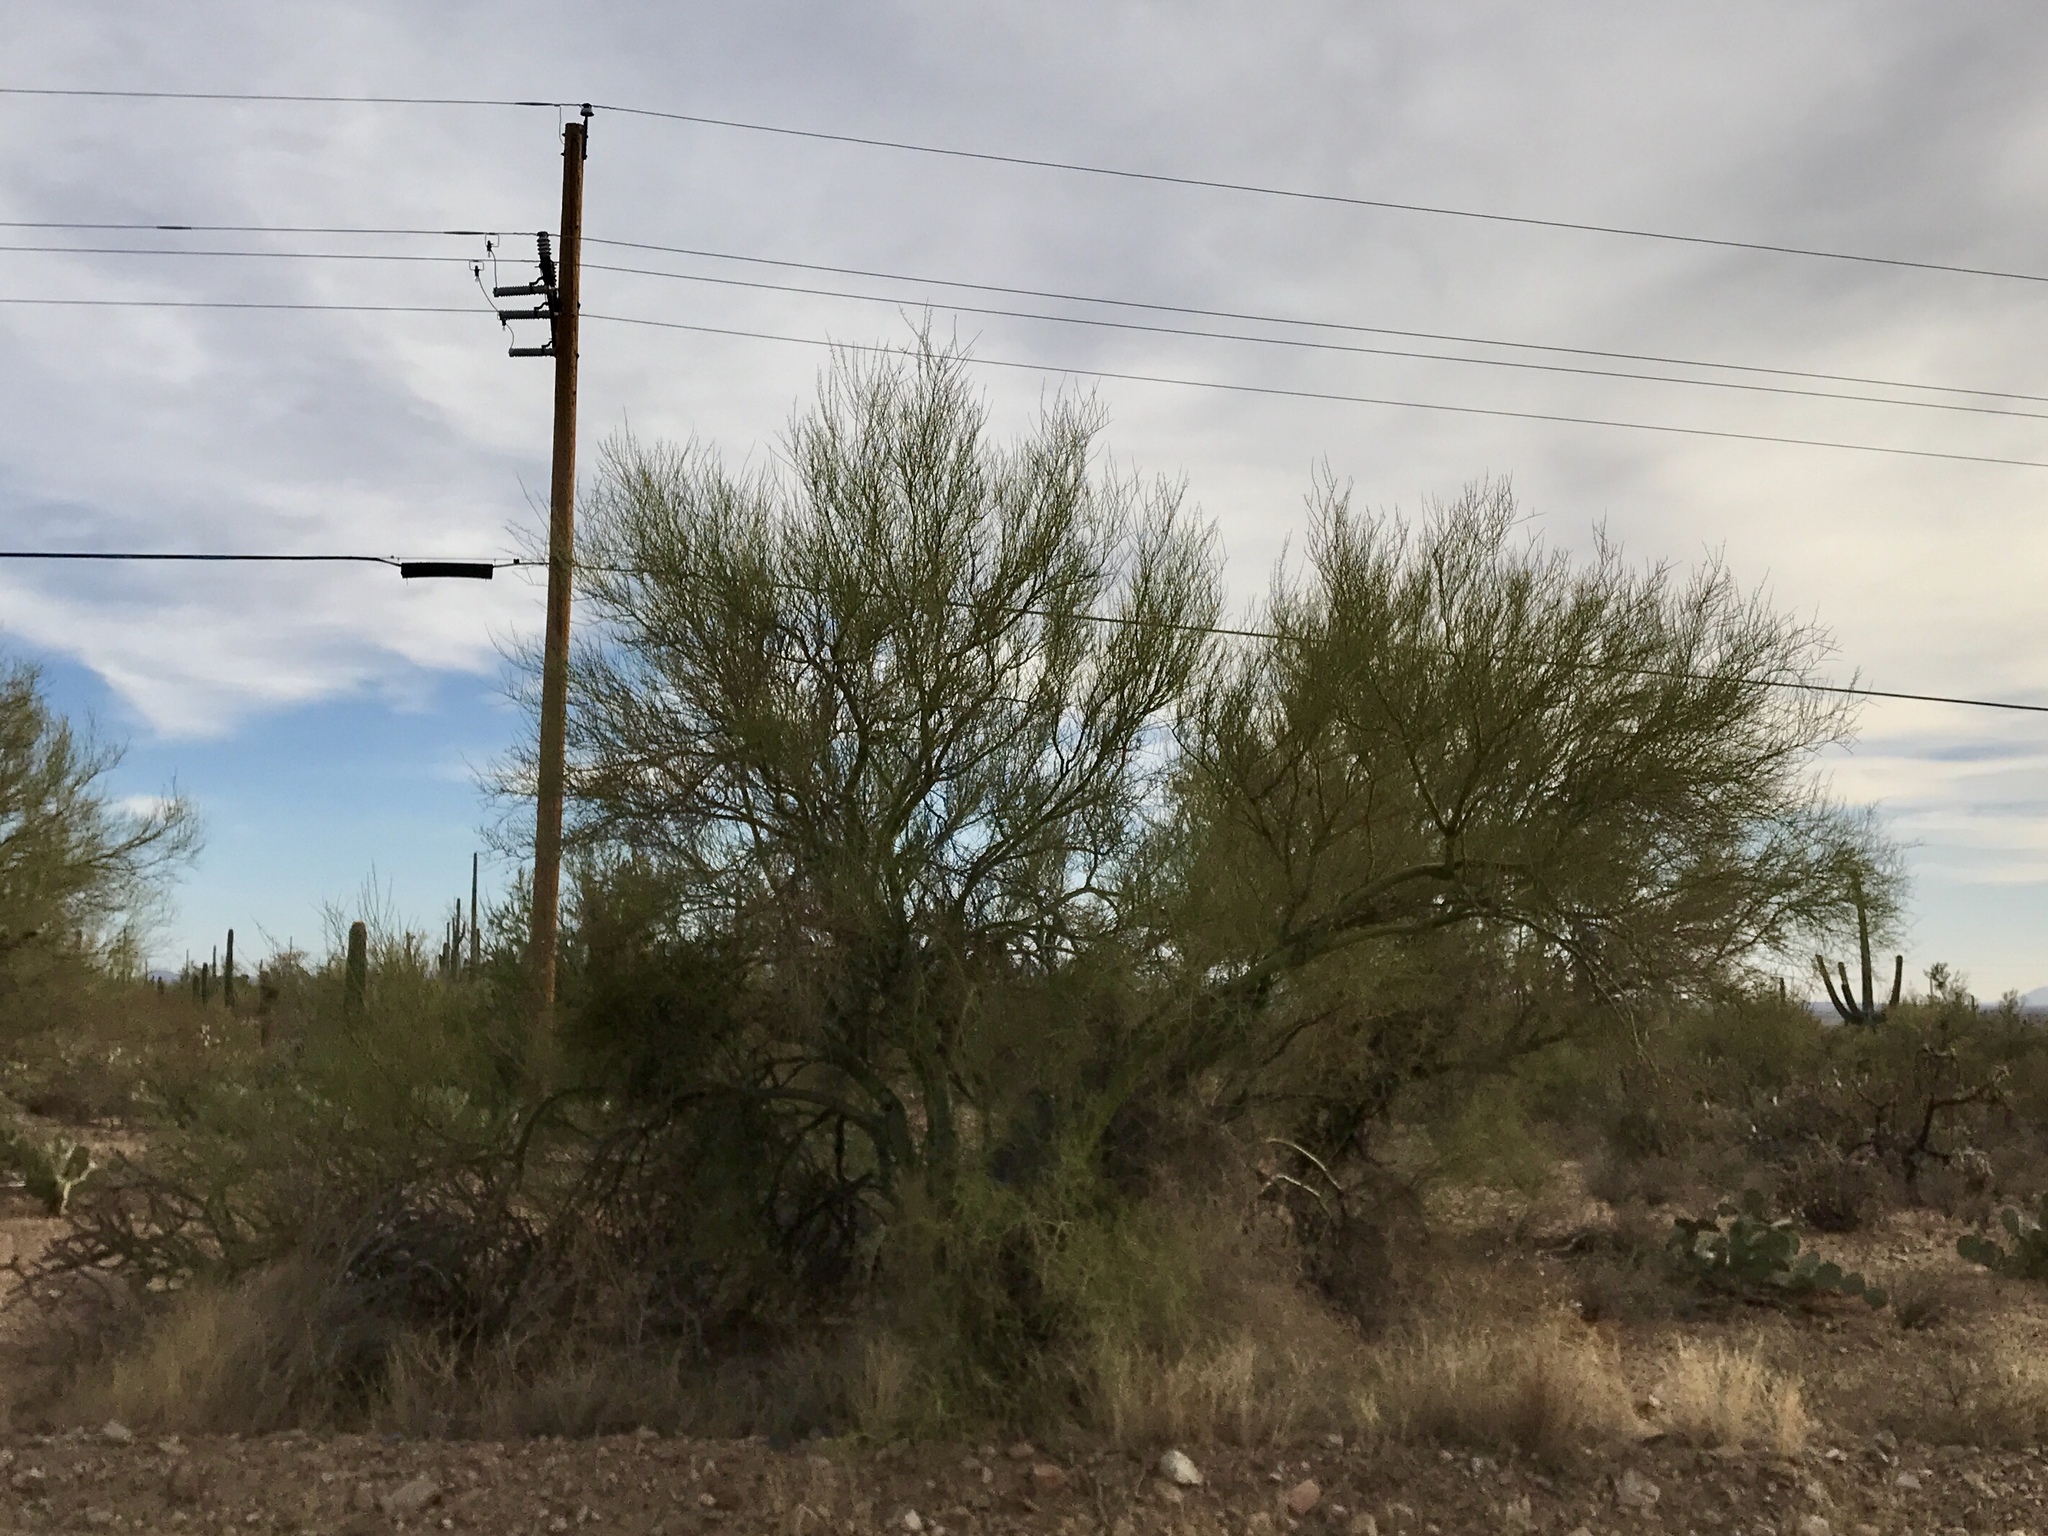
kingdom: Plantae
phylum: Tracheophyta
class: Magnoliopsida
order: Fabales
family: Fabaceae
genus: Parkinsonia
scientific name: Parkinsonia microphylla
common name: Yellow paloverde
